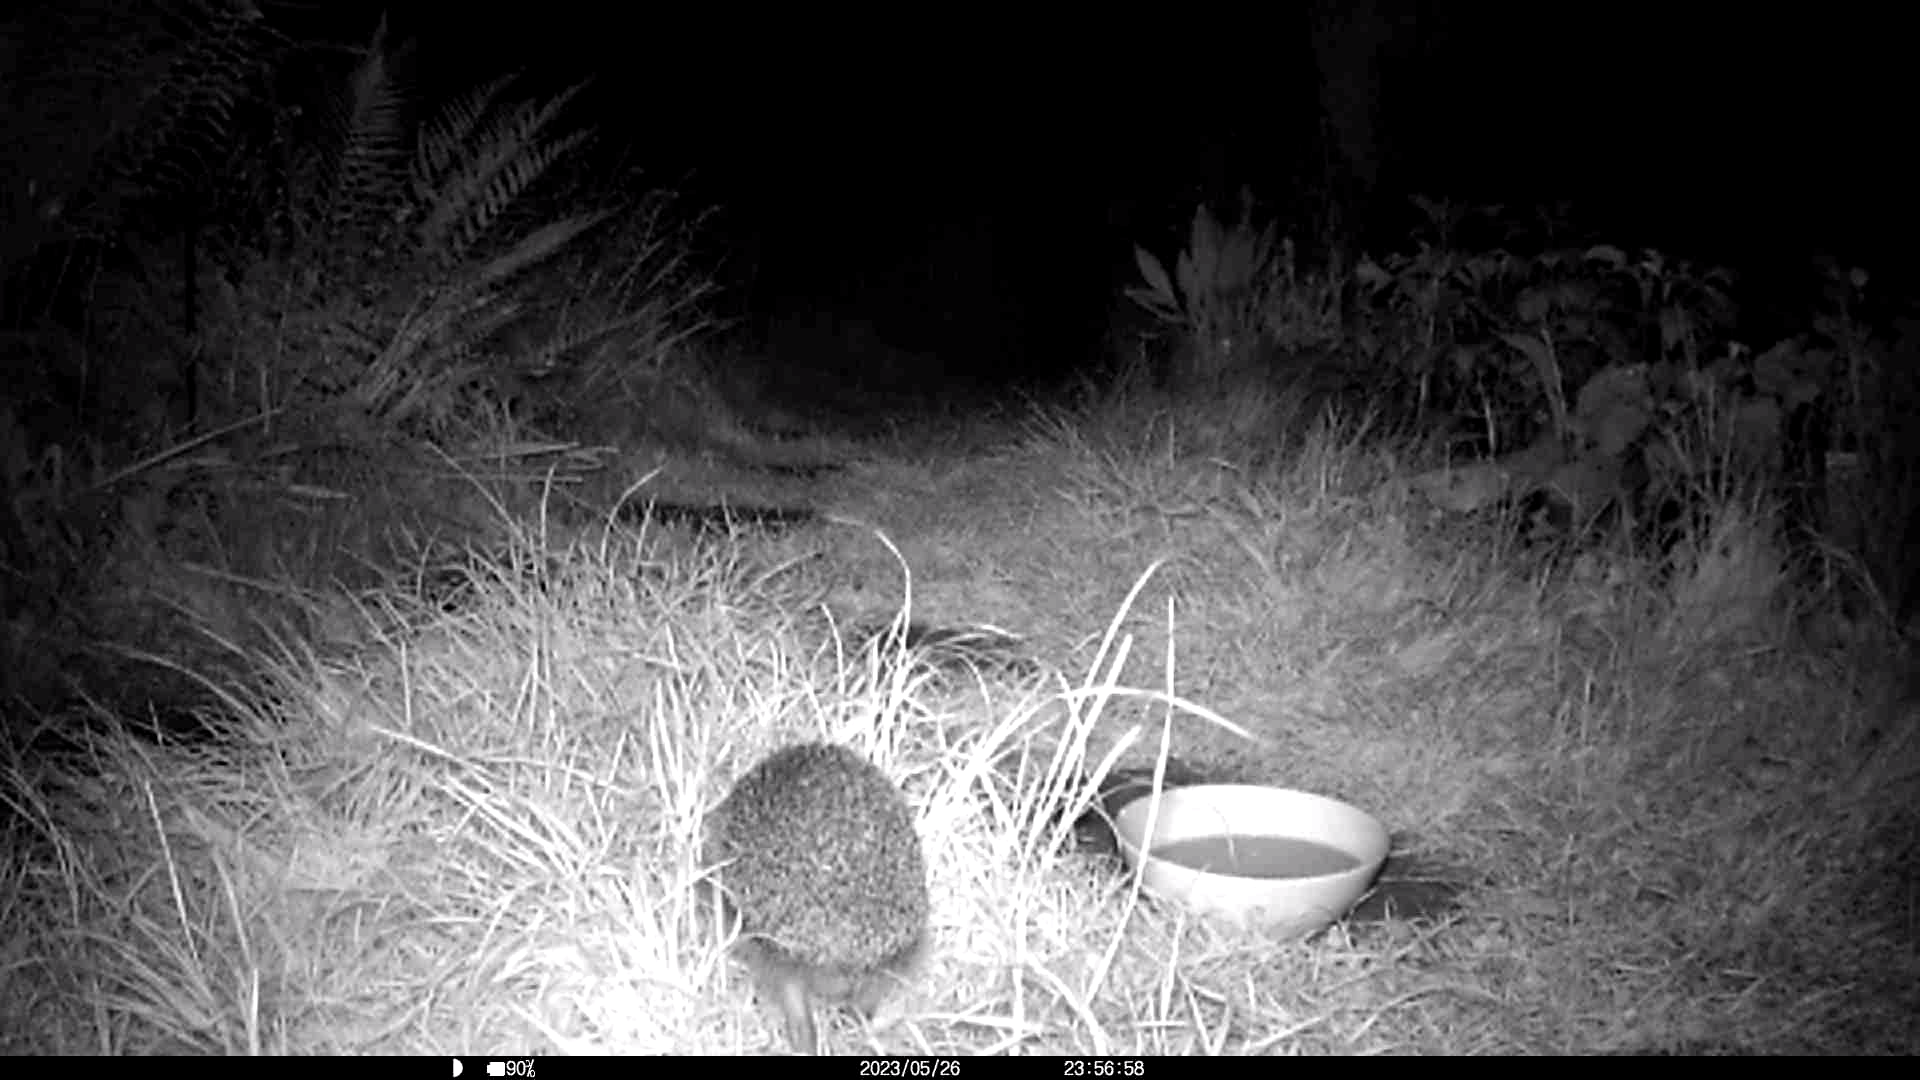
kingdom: Animalia
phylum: Chordata
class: Mammalia
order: Erinaceomorpha
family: Erinaceidae
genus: Erinaceus
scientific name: Erinaceus europaeus
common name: West european hedgehog
